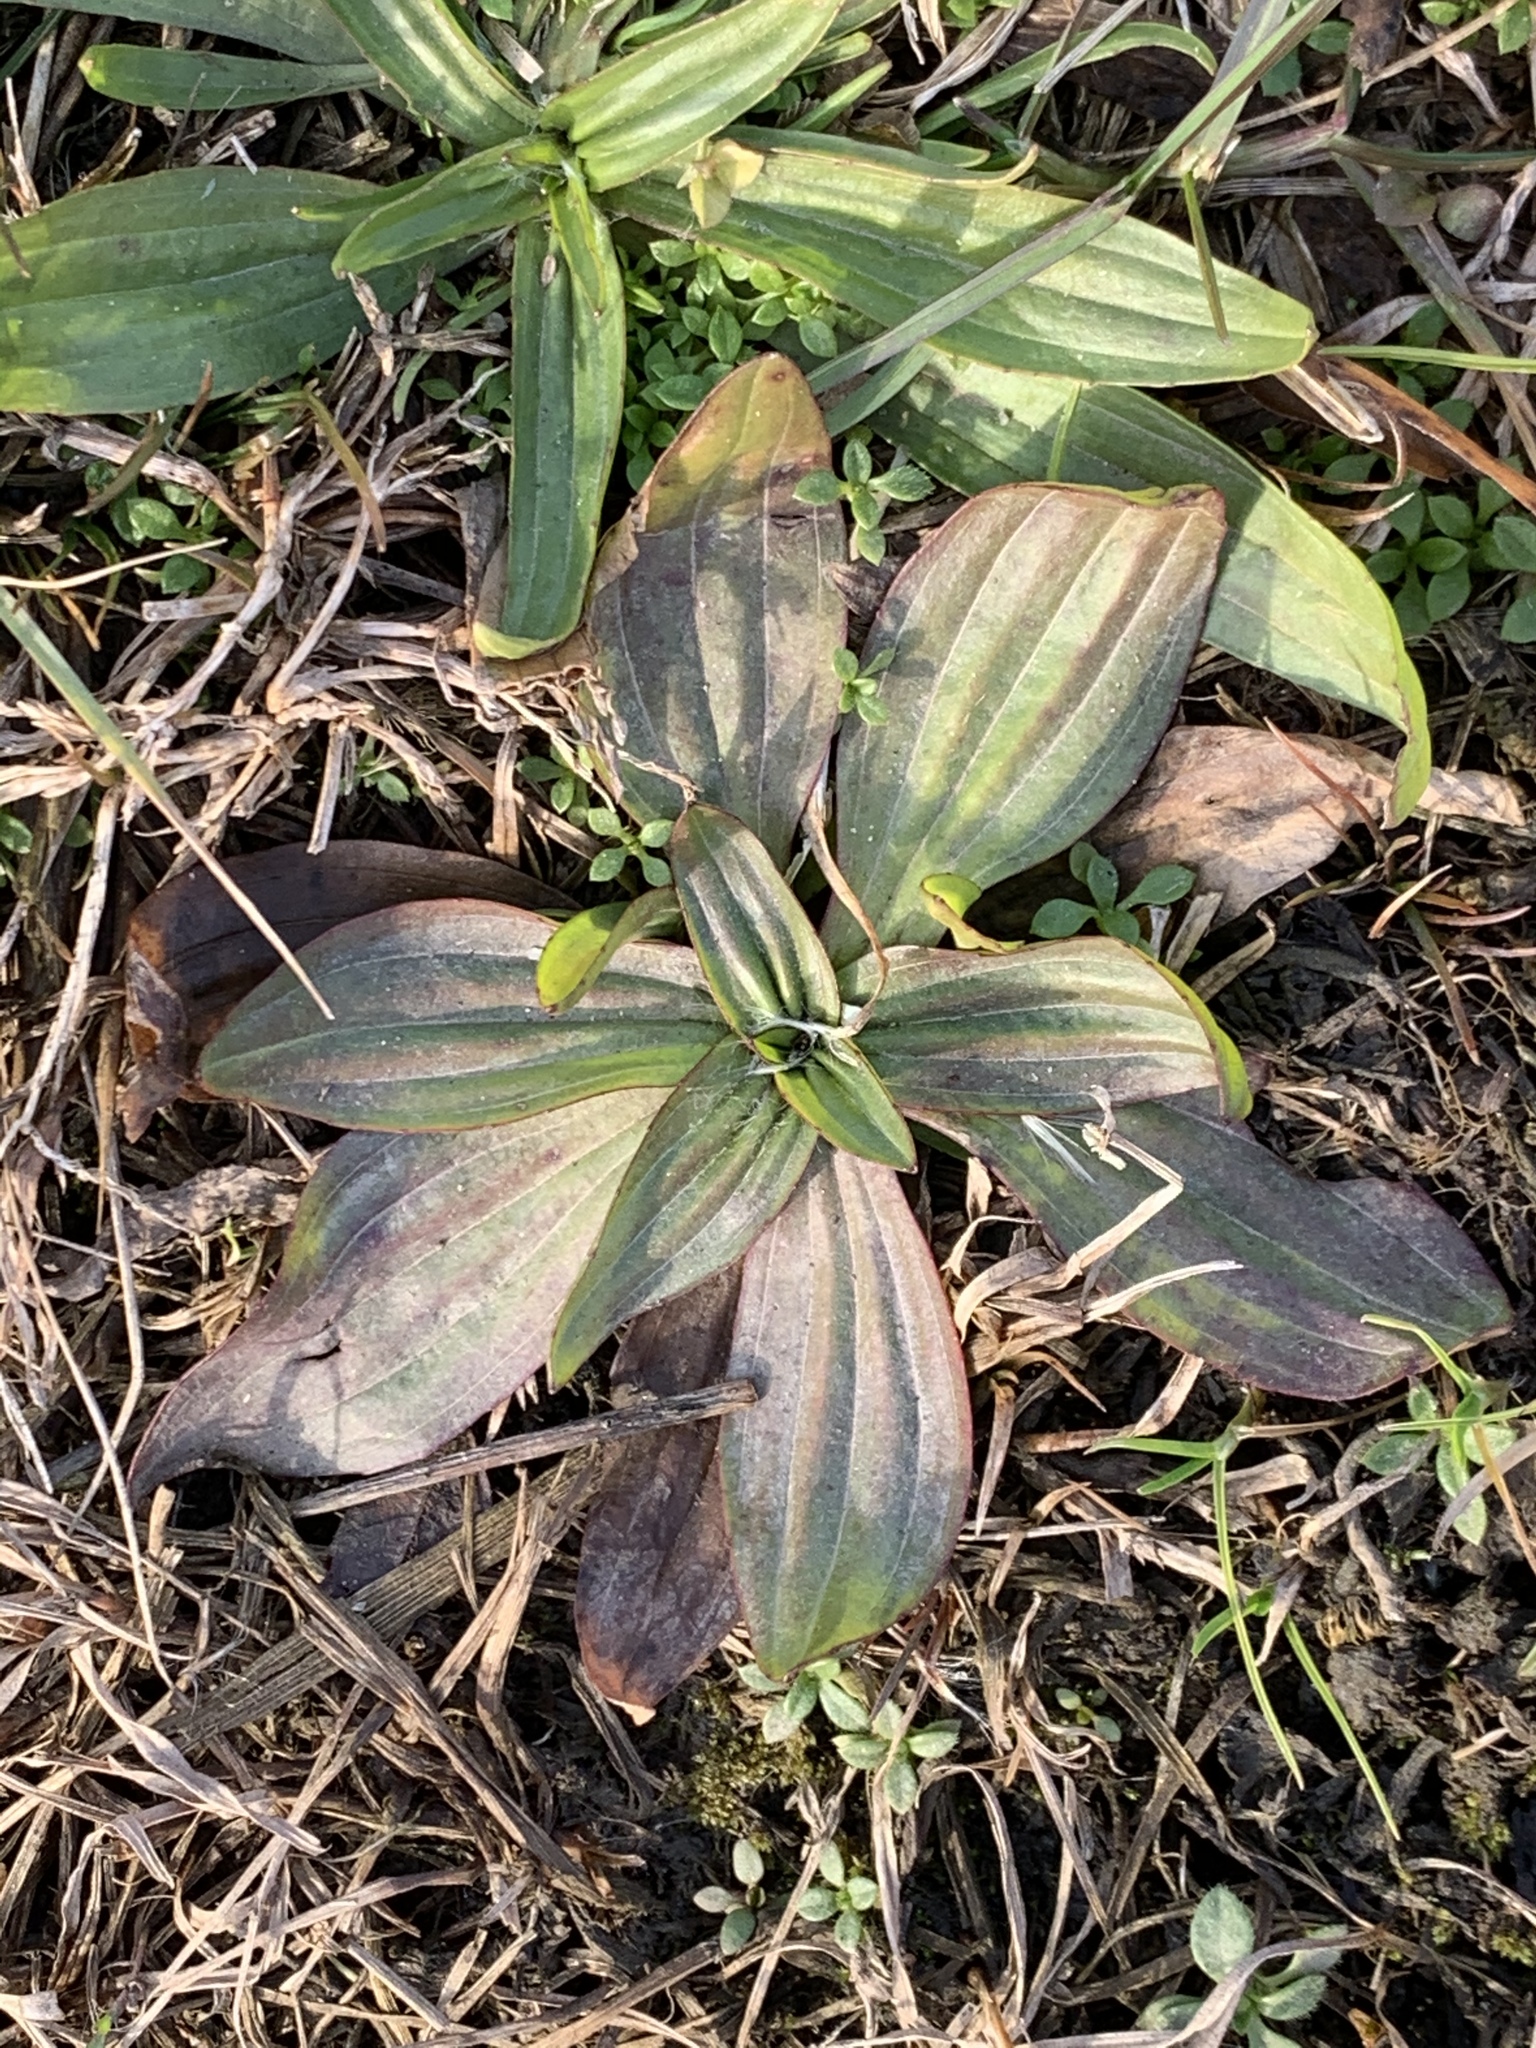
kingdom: Plantae
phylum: Tracheophyta
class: Magnoliopsida
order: Lamiales
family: Plantaginaceae
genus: Plantago
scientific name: Plantago lanceolata
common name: Ribwort plantain
